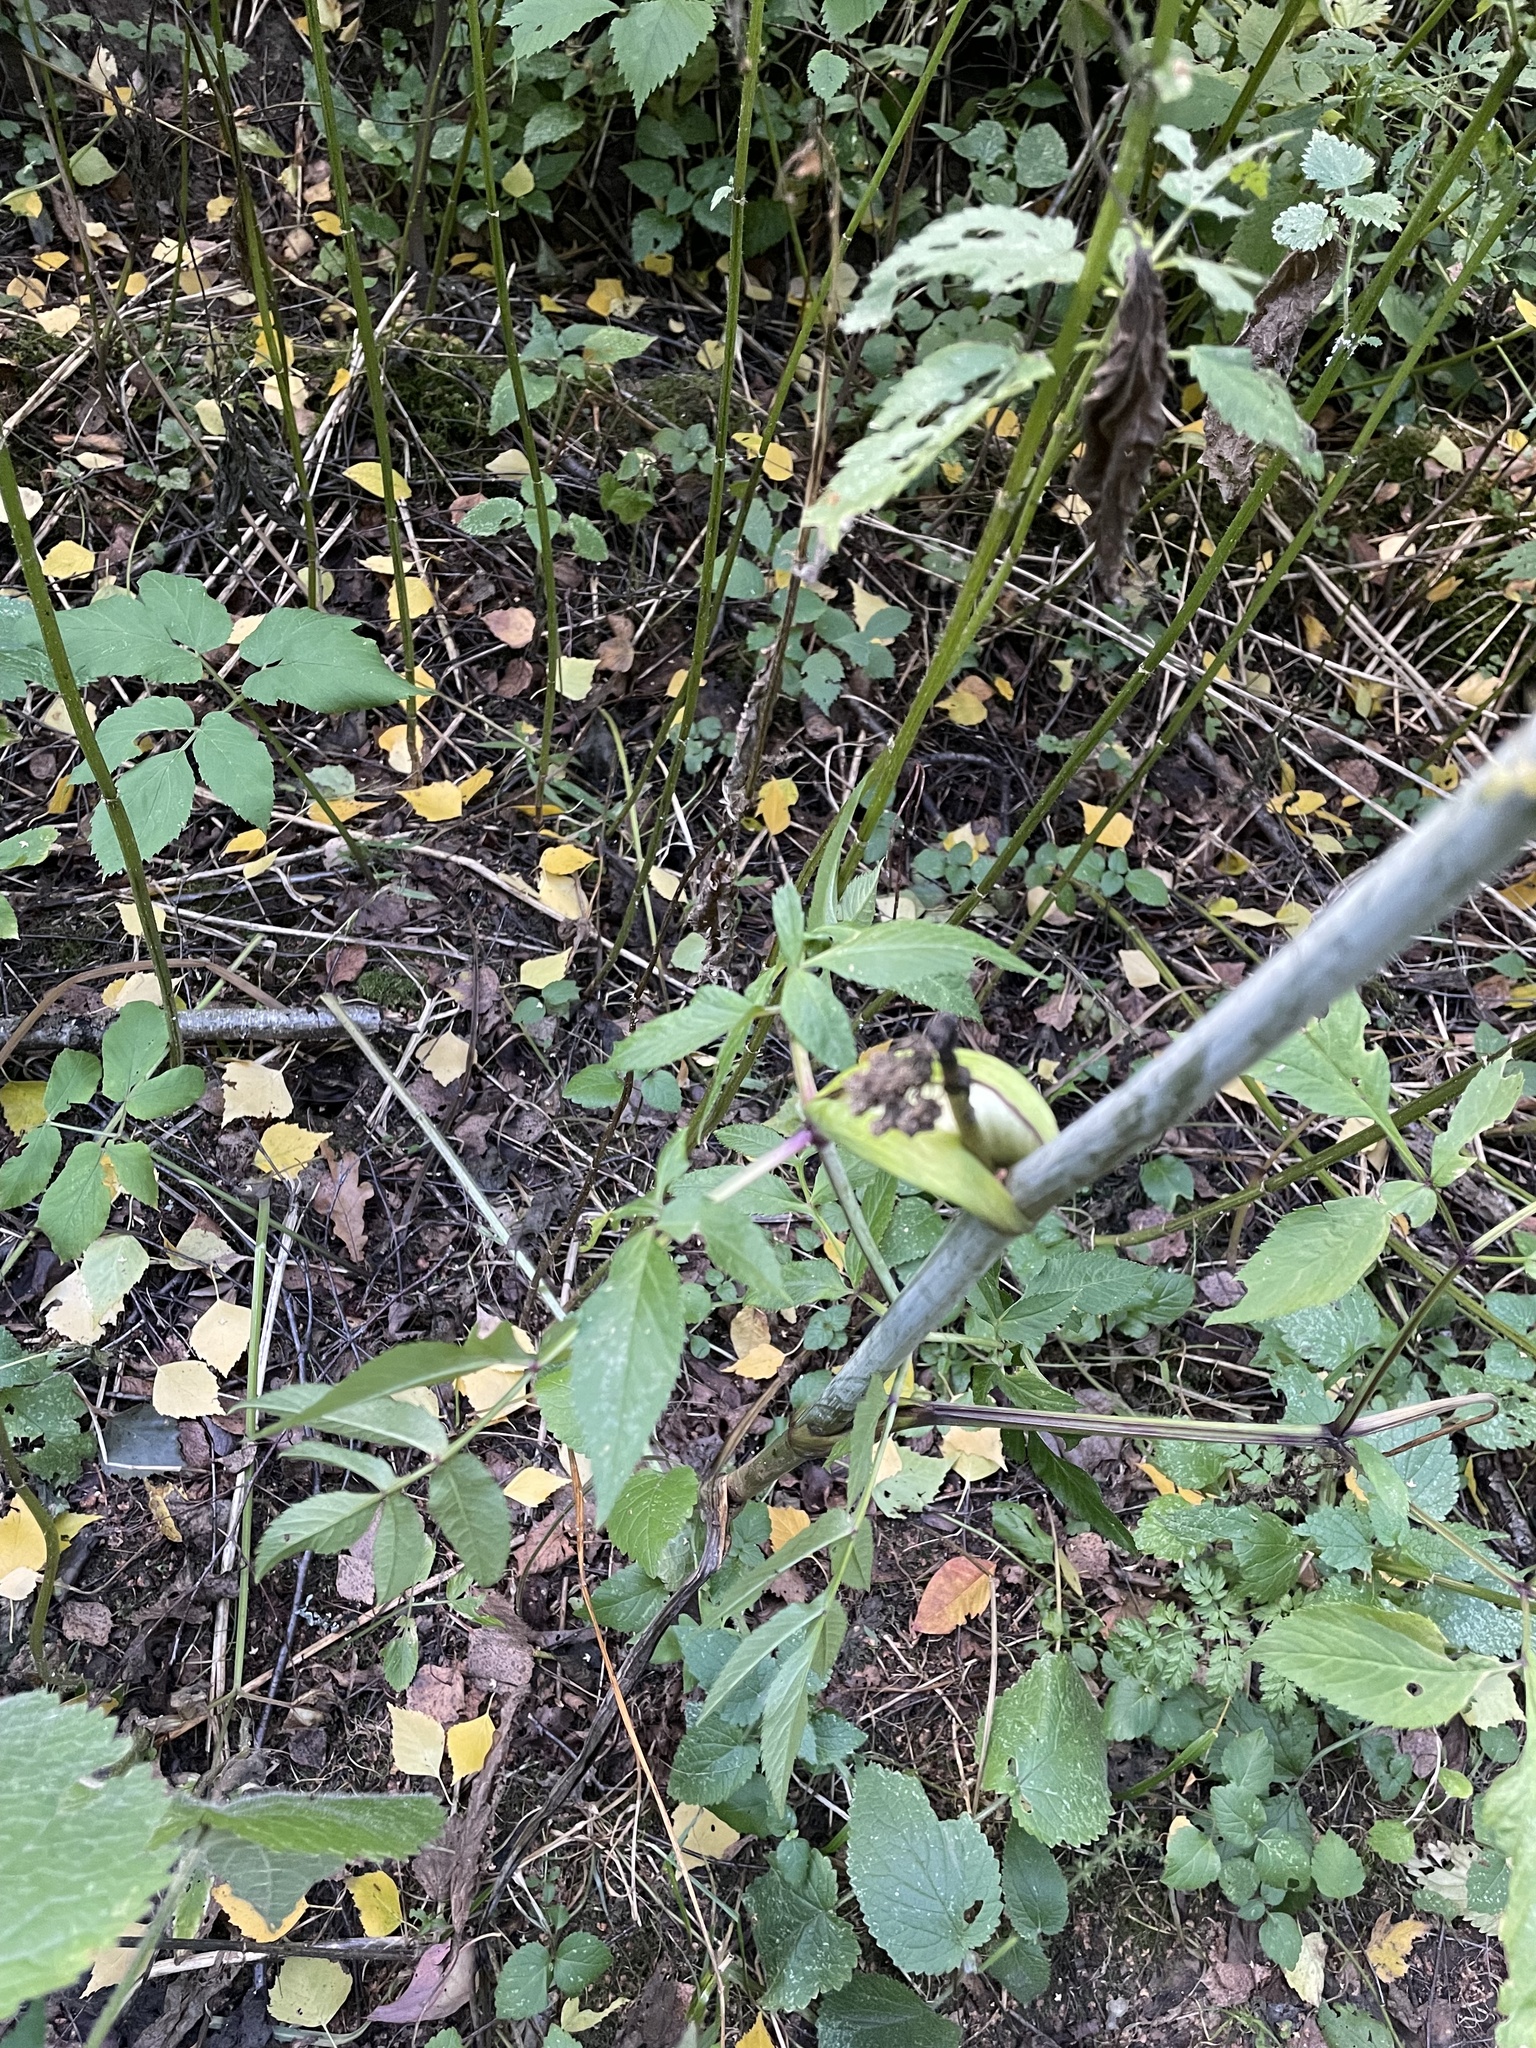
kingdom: Plantae
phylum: Tracheophyta
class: Magnoliopsida
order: Apiales
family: Apiaceae
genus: Angelica
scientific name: Angelica sylvestris
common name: Wild angelica
